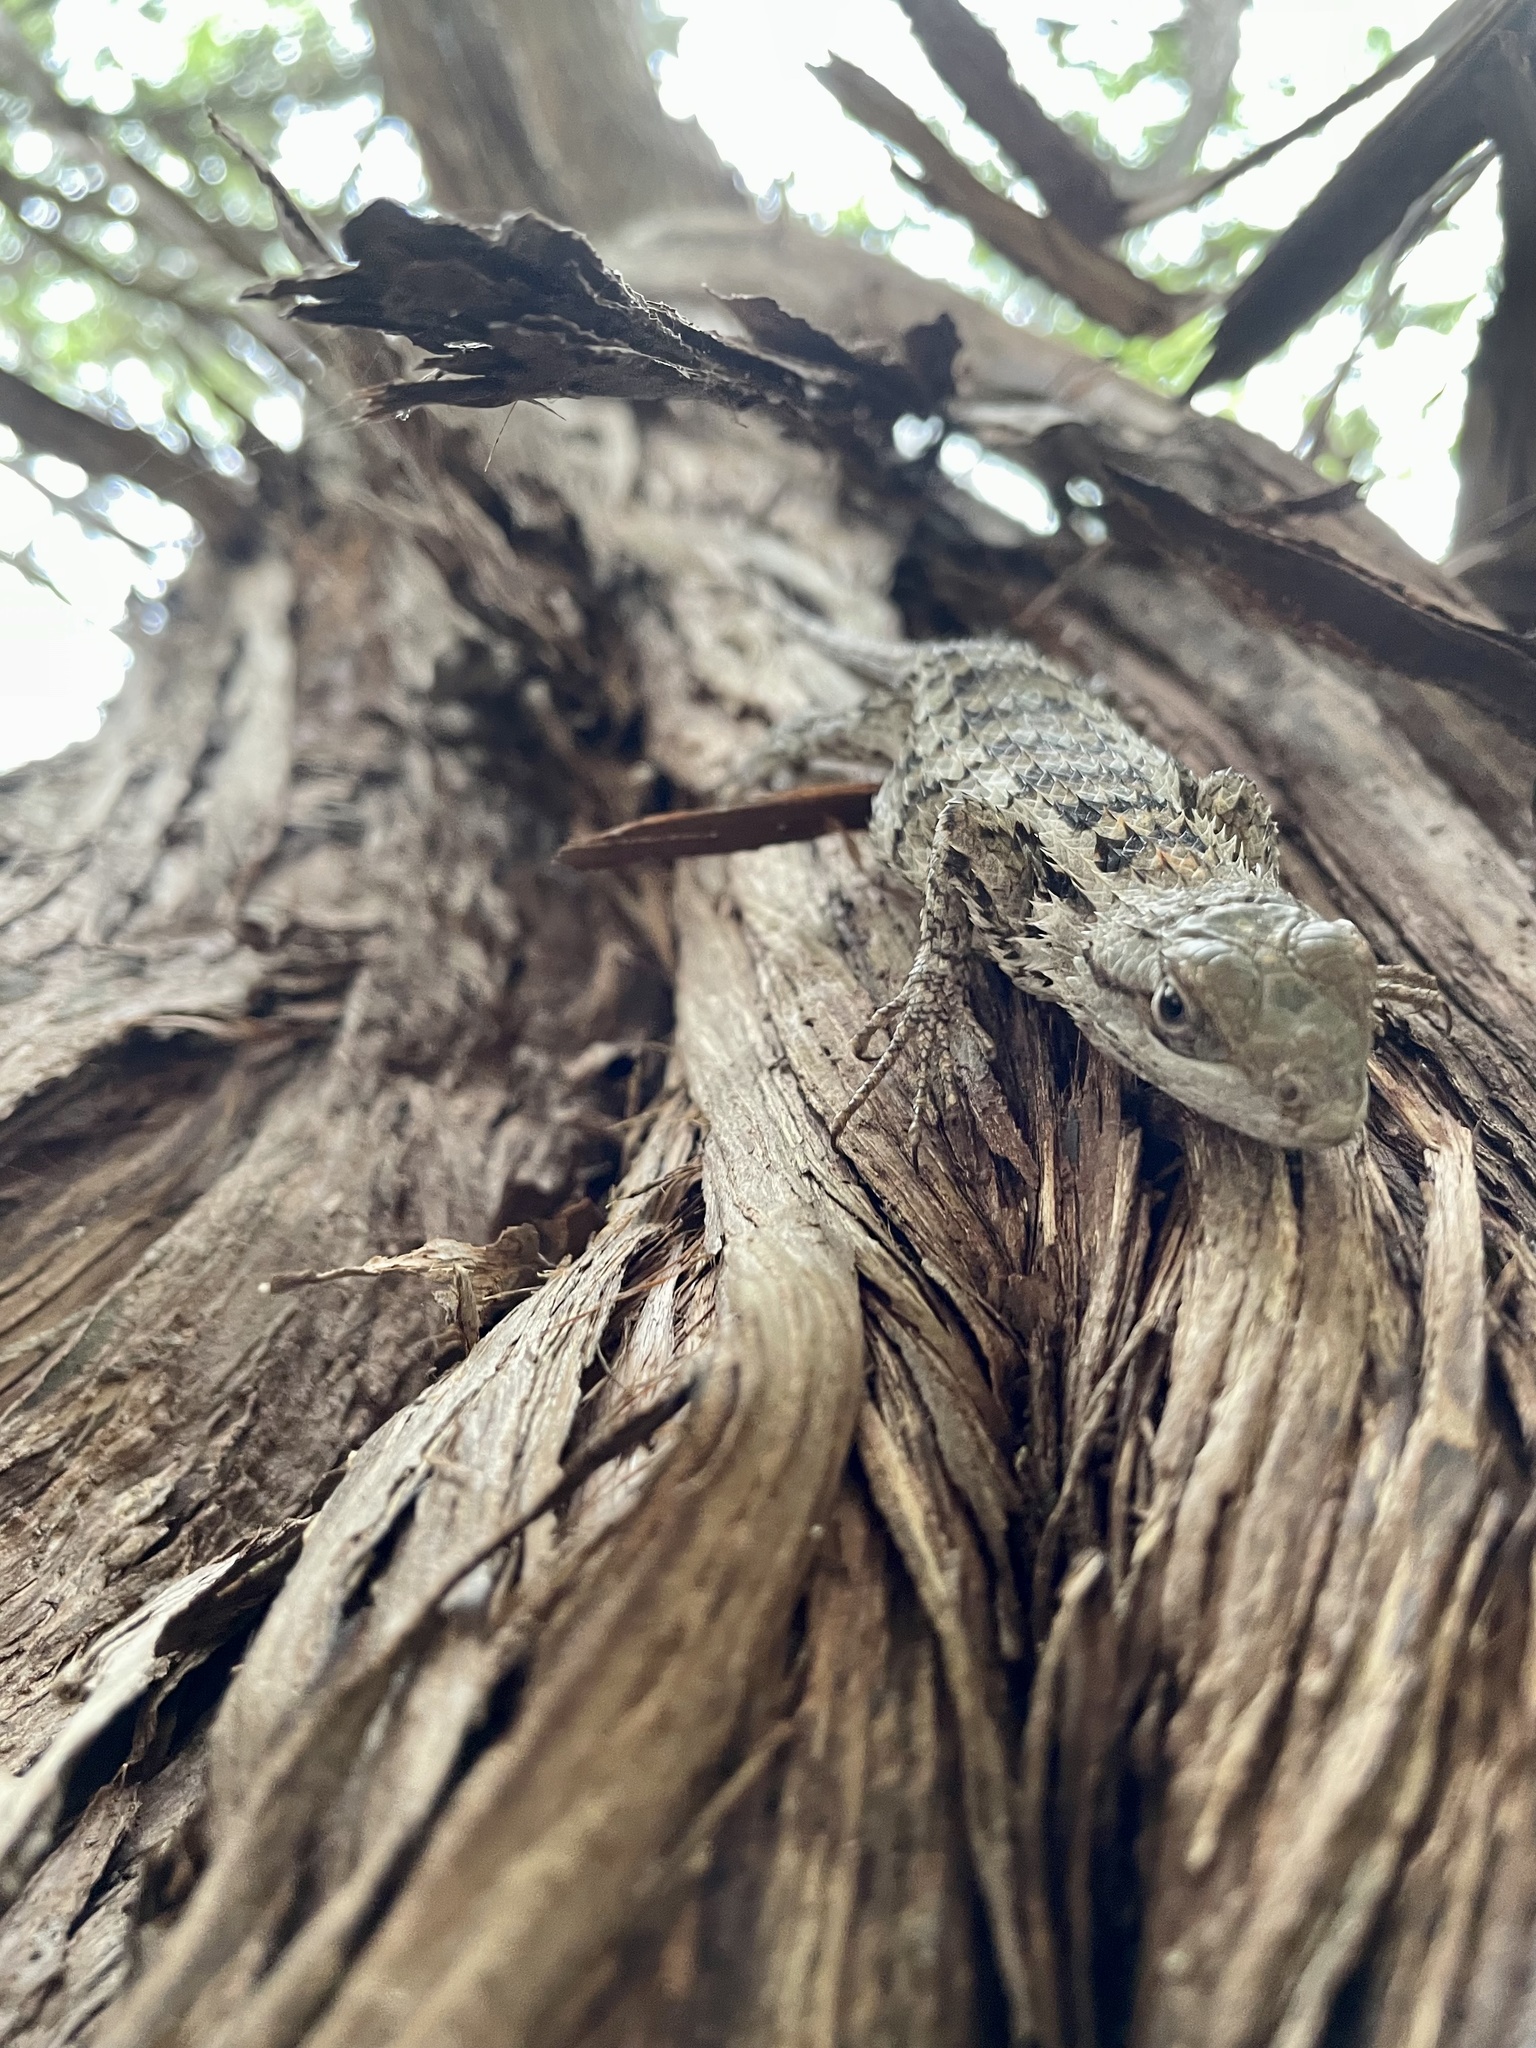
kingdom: Animalia
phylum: Chordata
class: Squamata
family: Phrynosomatidae
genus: Sceloporus
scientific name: Sceloporus olivaceus
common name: Texas spiny lizard
